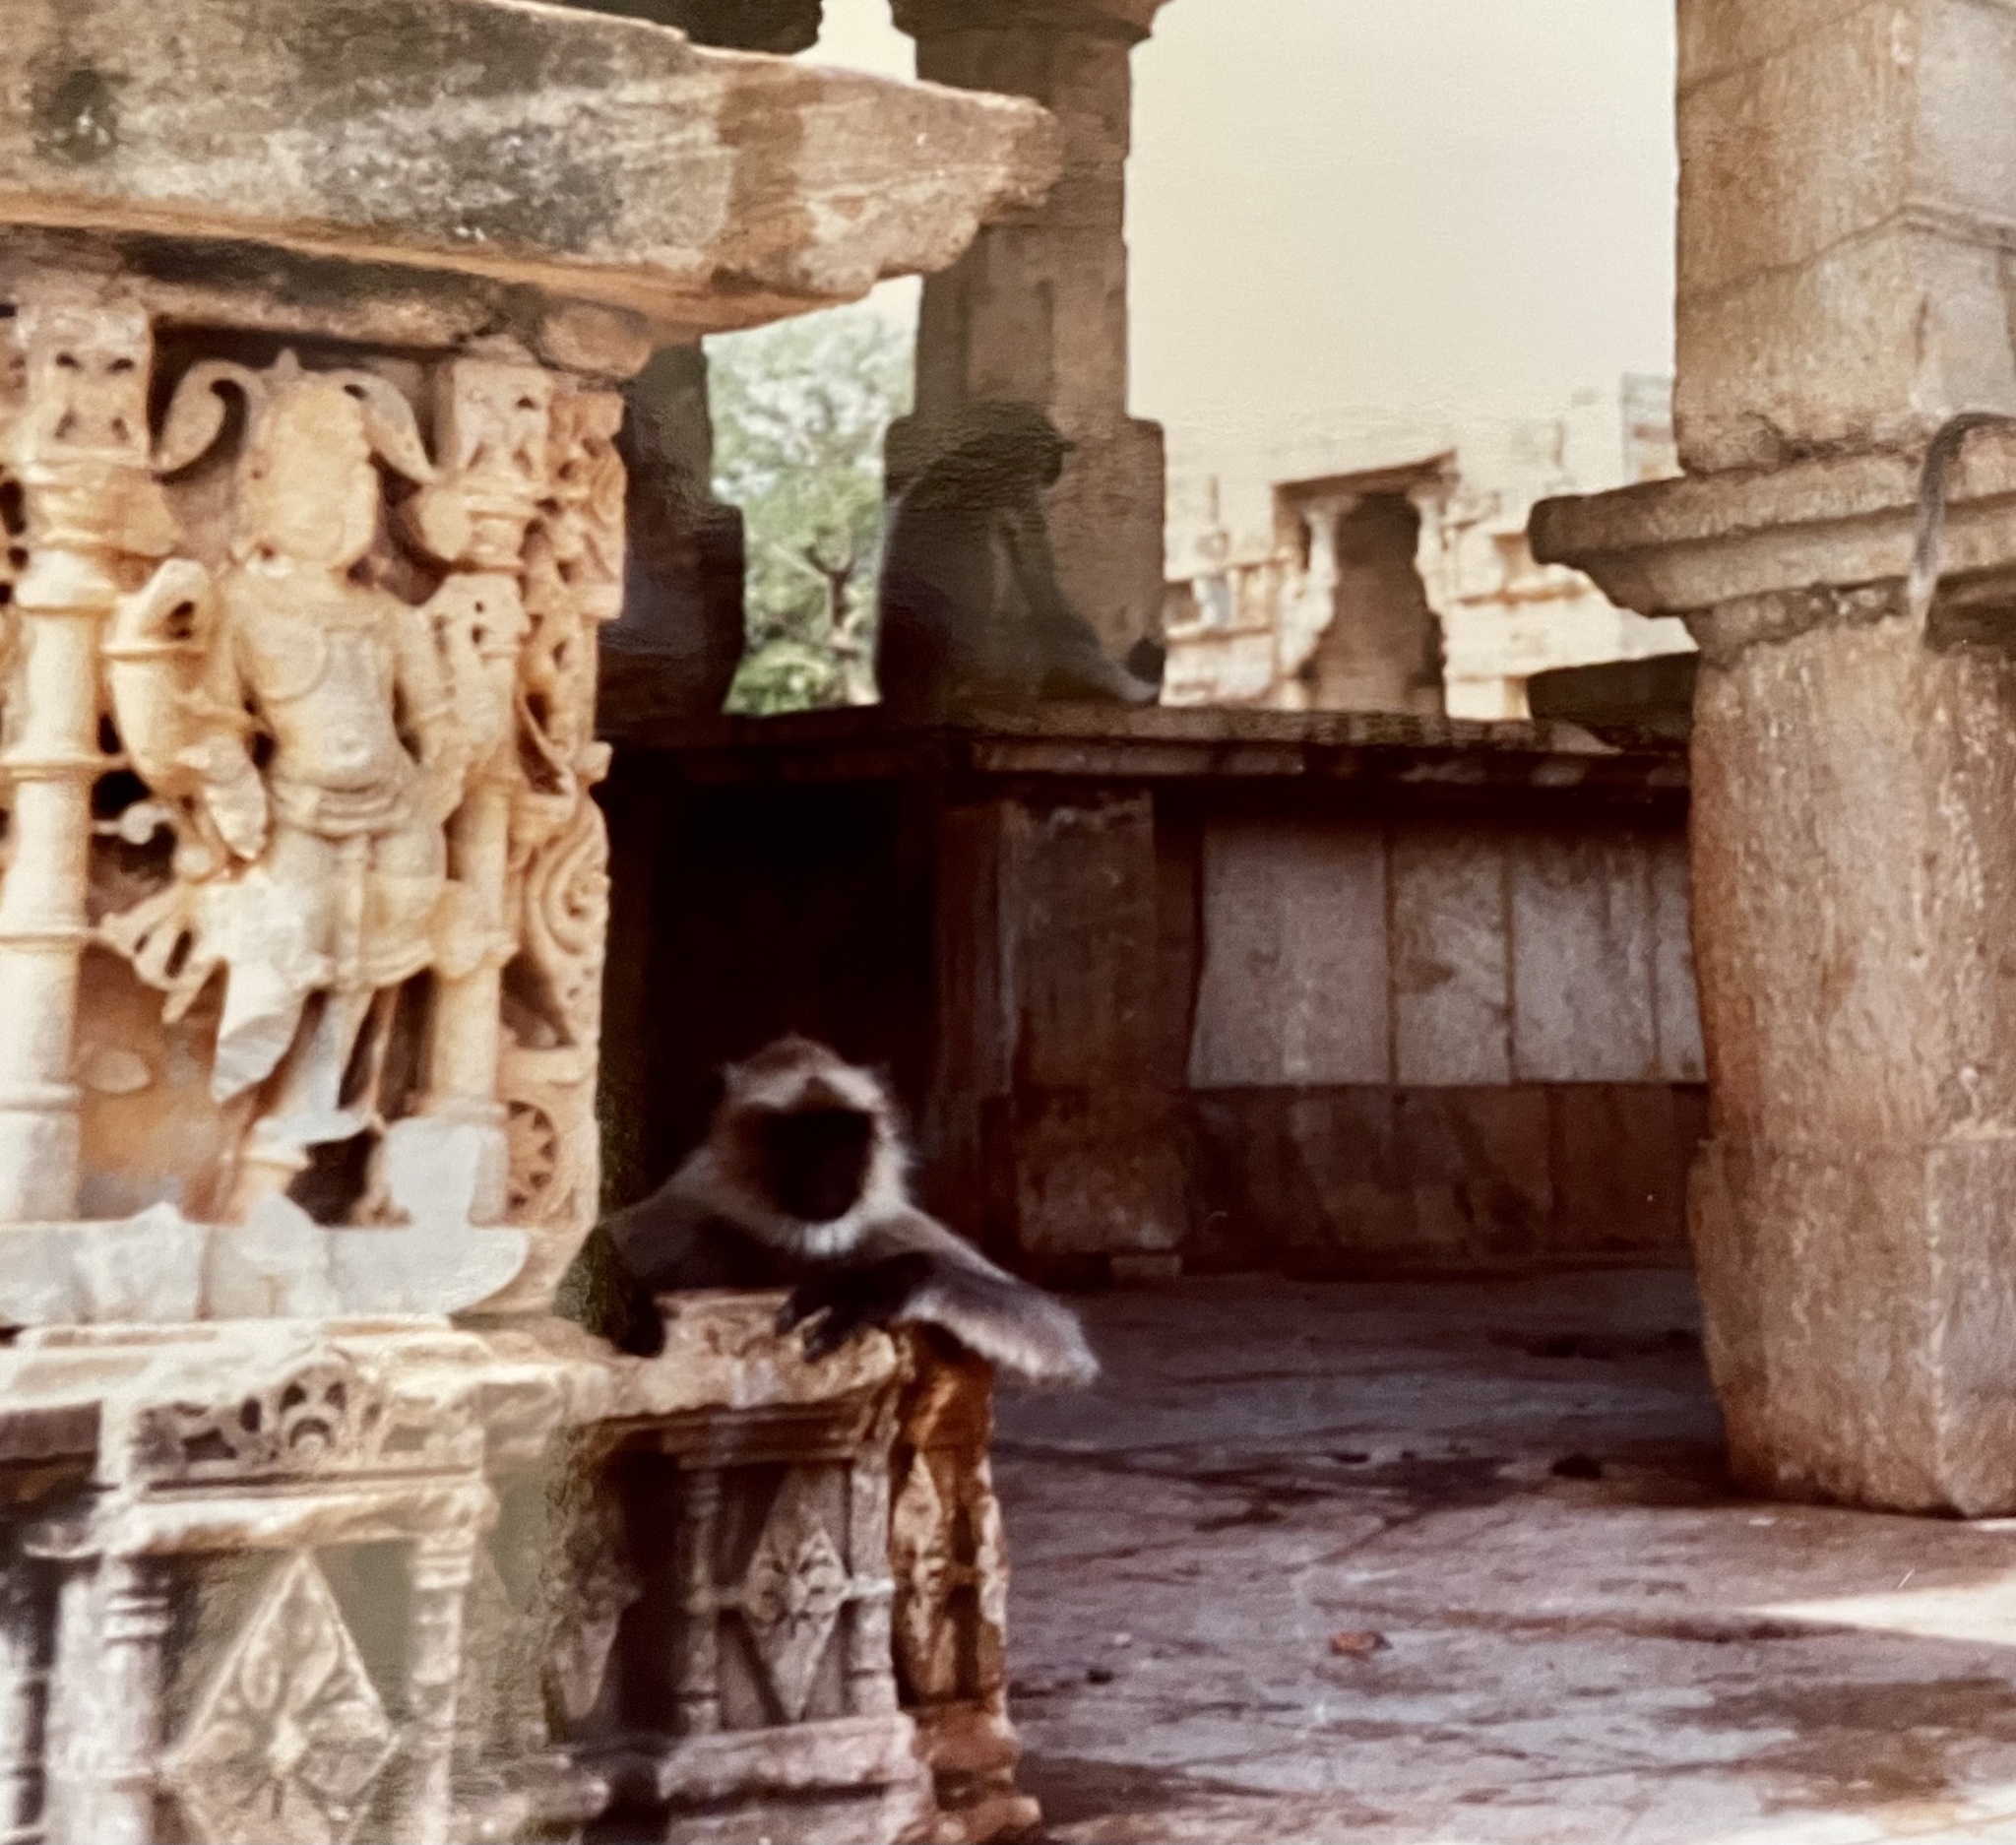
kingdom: Animalia
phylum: Chordata
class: Mammalia
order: Primates
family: Cercopithecidae
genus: Semnopithecus
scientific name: Semnopithecus entellus
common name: Northern plains gray langur
